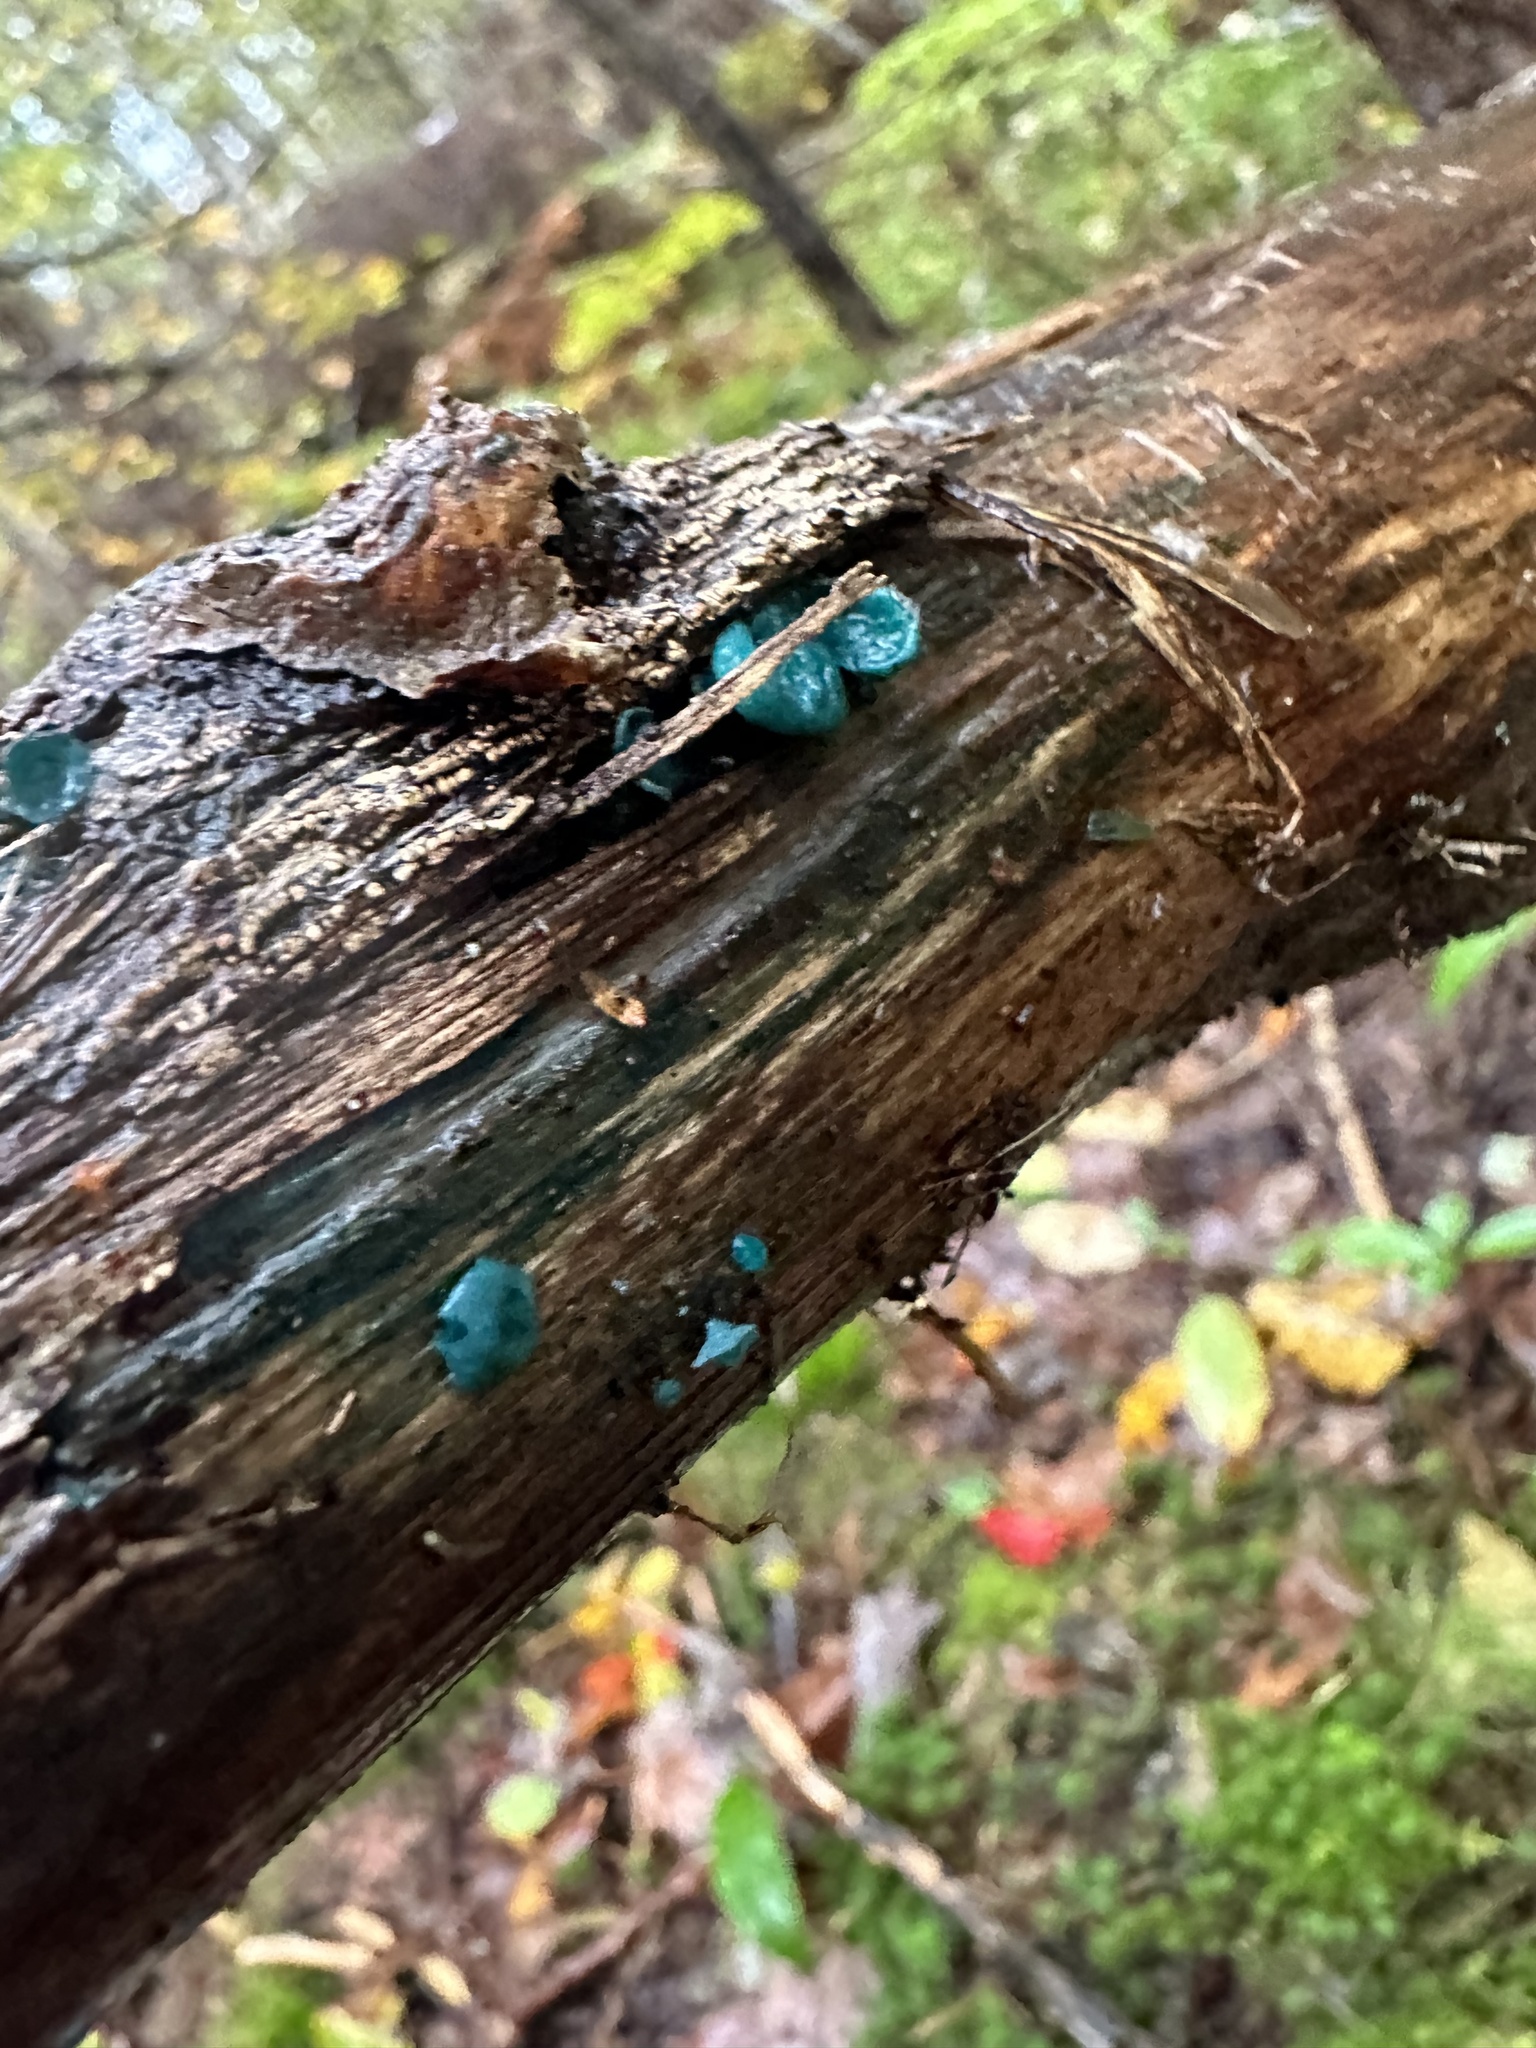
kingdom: Fungi
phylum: Ascomycota
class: Leotiomycetes
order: Helotiales
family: Chlorociboriaceae
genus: Chlorociboria
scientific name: Chlorociboria aeruginascens
